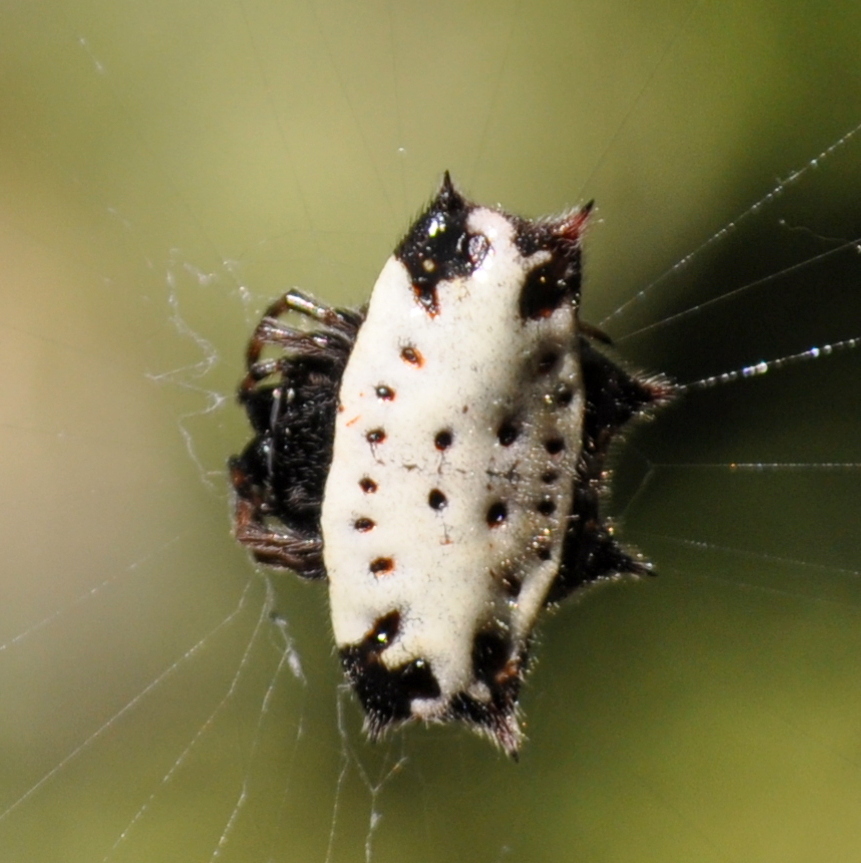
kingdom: Animalia
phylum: Arthropoda
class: Arachnida
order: Araneae
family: Araneidae
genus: Gasteracantha
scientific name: Gasteracantha cancriformis
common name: Orb weavers
